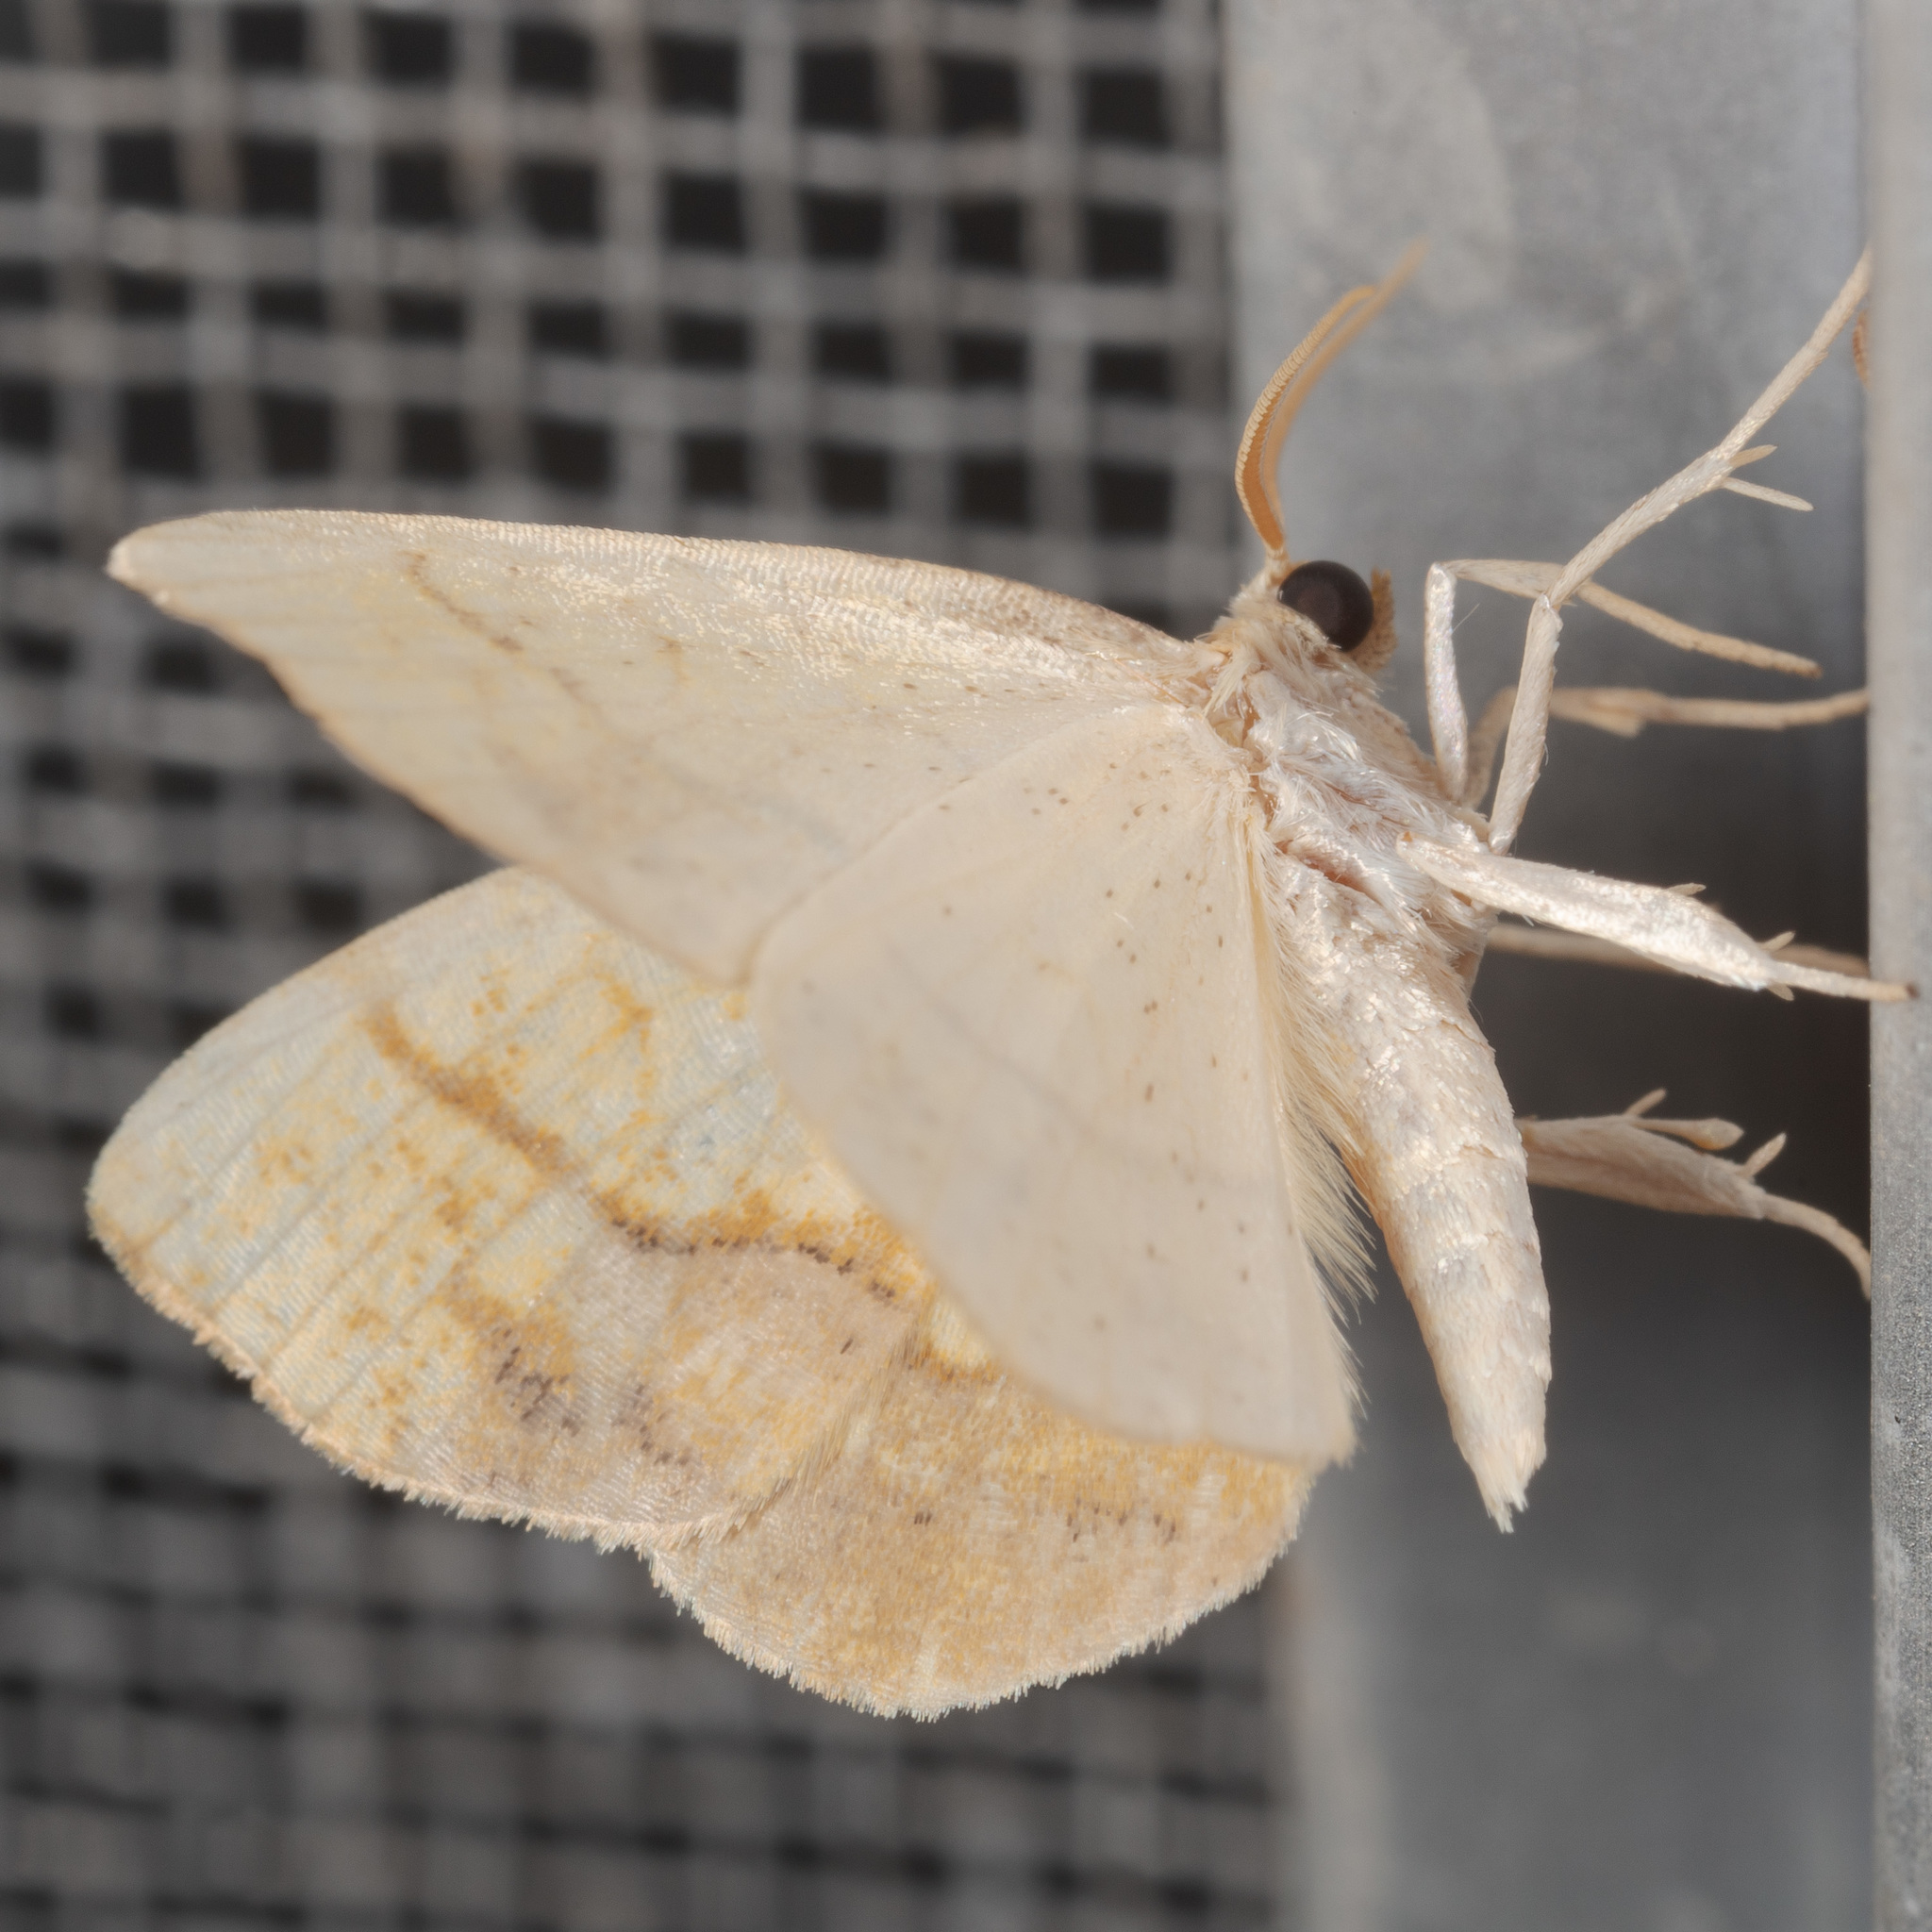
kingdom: Animalia
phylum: Arthropoda
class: Insecta
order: Lepidoptera
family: Geometridae
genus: Nematocampa
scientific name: Nematocampa resistaria
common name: Horned spanworm moth
